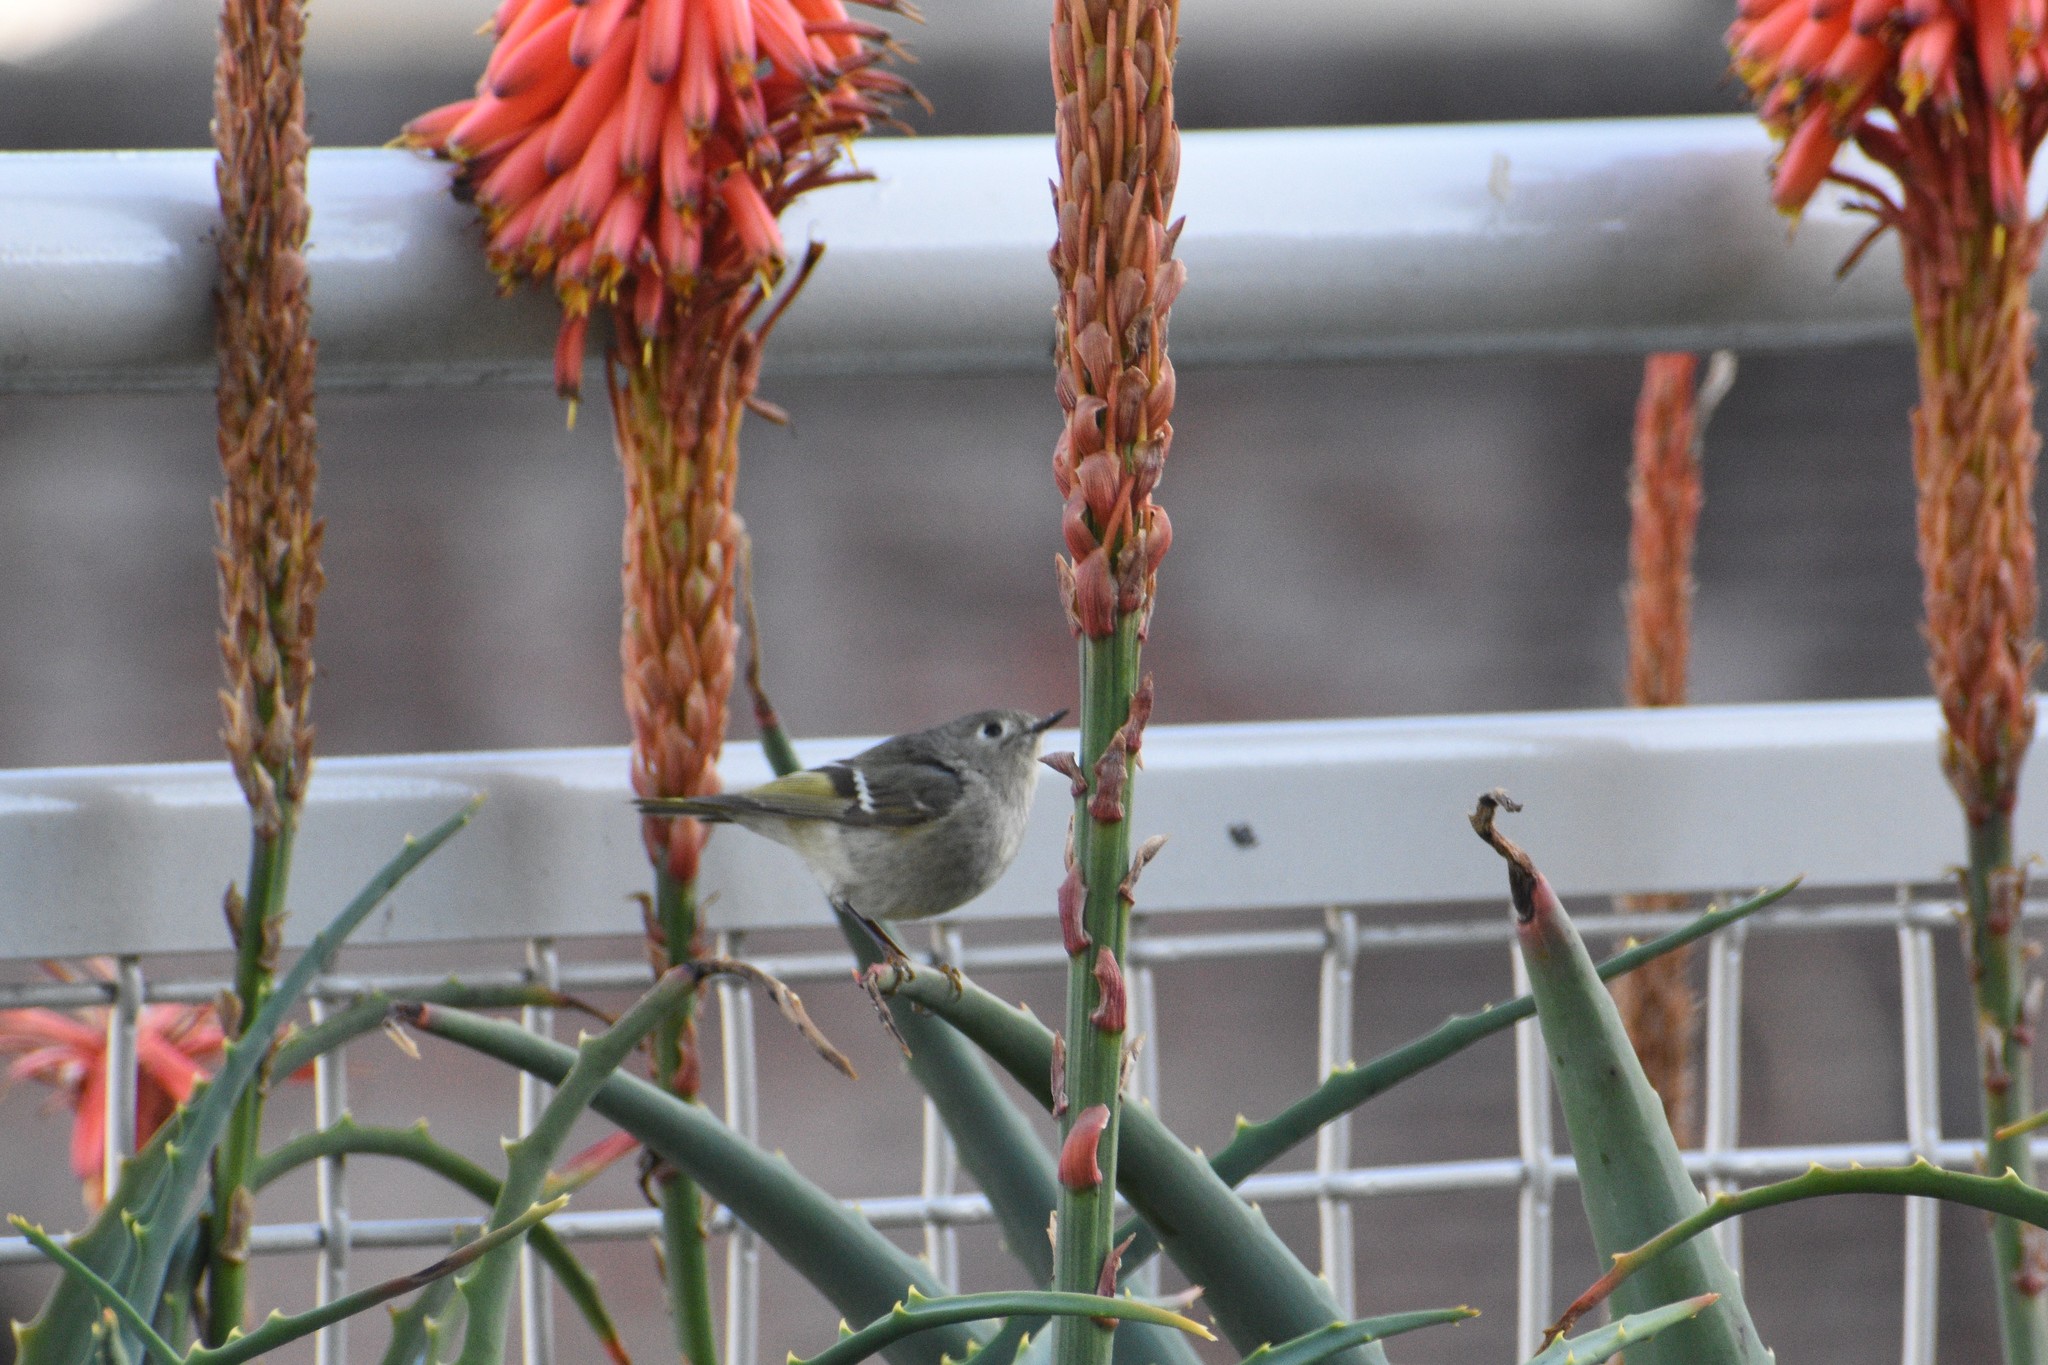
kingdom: Animalia
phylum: Chordata
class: Aves
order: Passeriformes
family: Regulidae
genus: Regulus
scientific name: Regulus calendula
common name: Ruby-crowned kinglet
